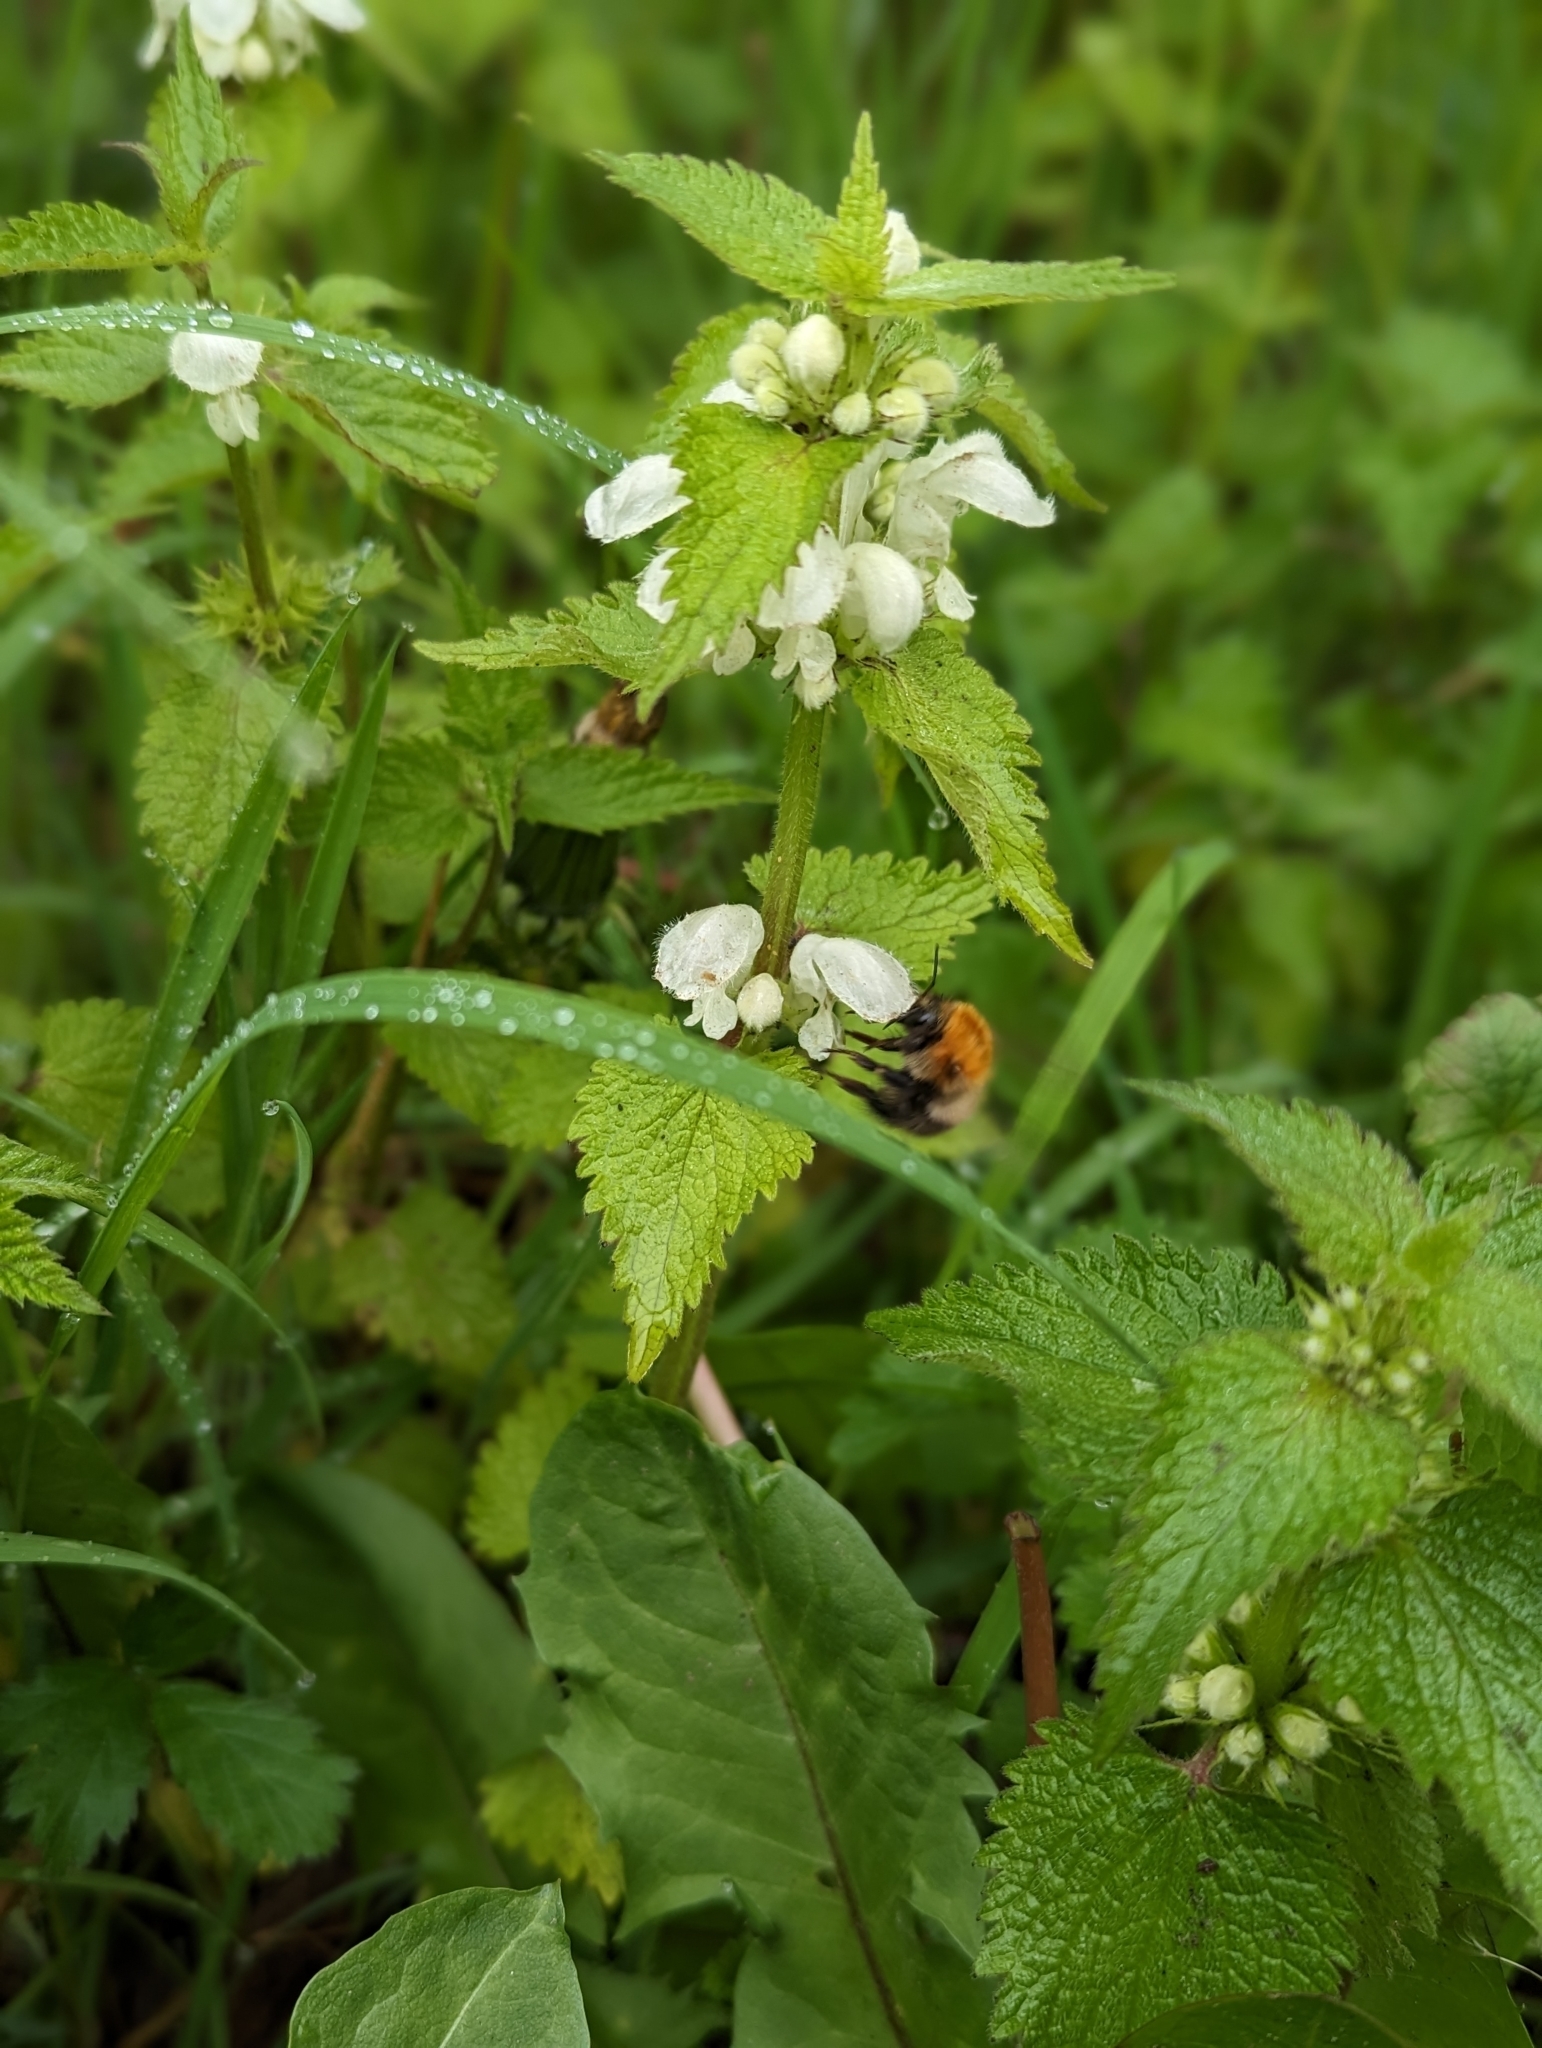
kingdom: Plantae
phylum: Tracheophyta
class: Magnoliopsida
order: Lamiales
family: Lamiaceae
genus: Lamium
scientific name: Lamium album
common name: White dead-nettle
